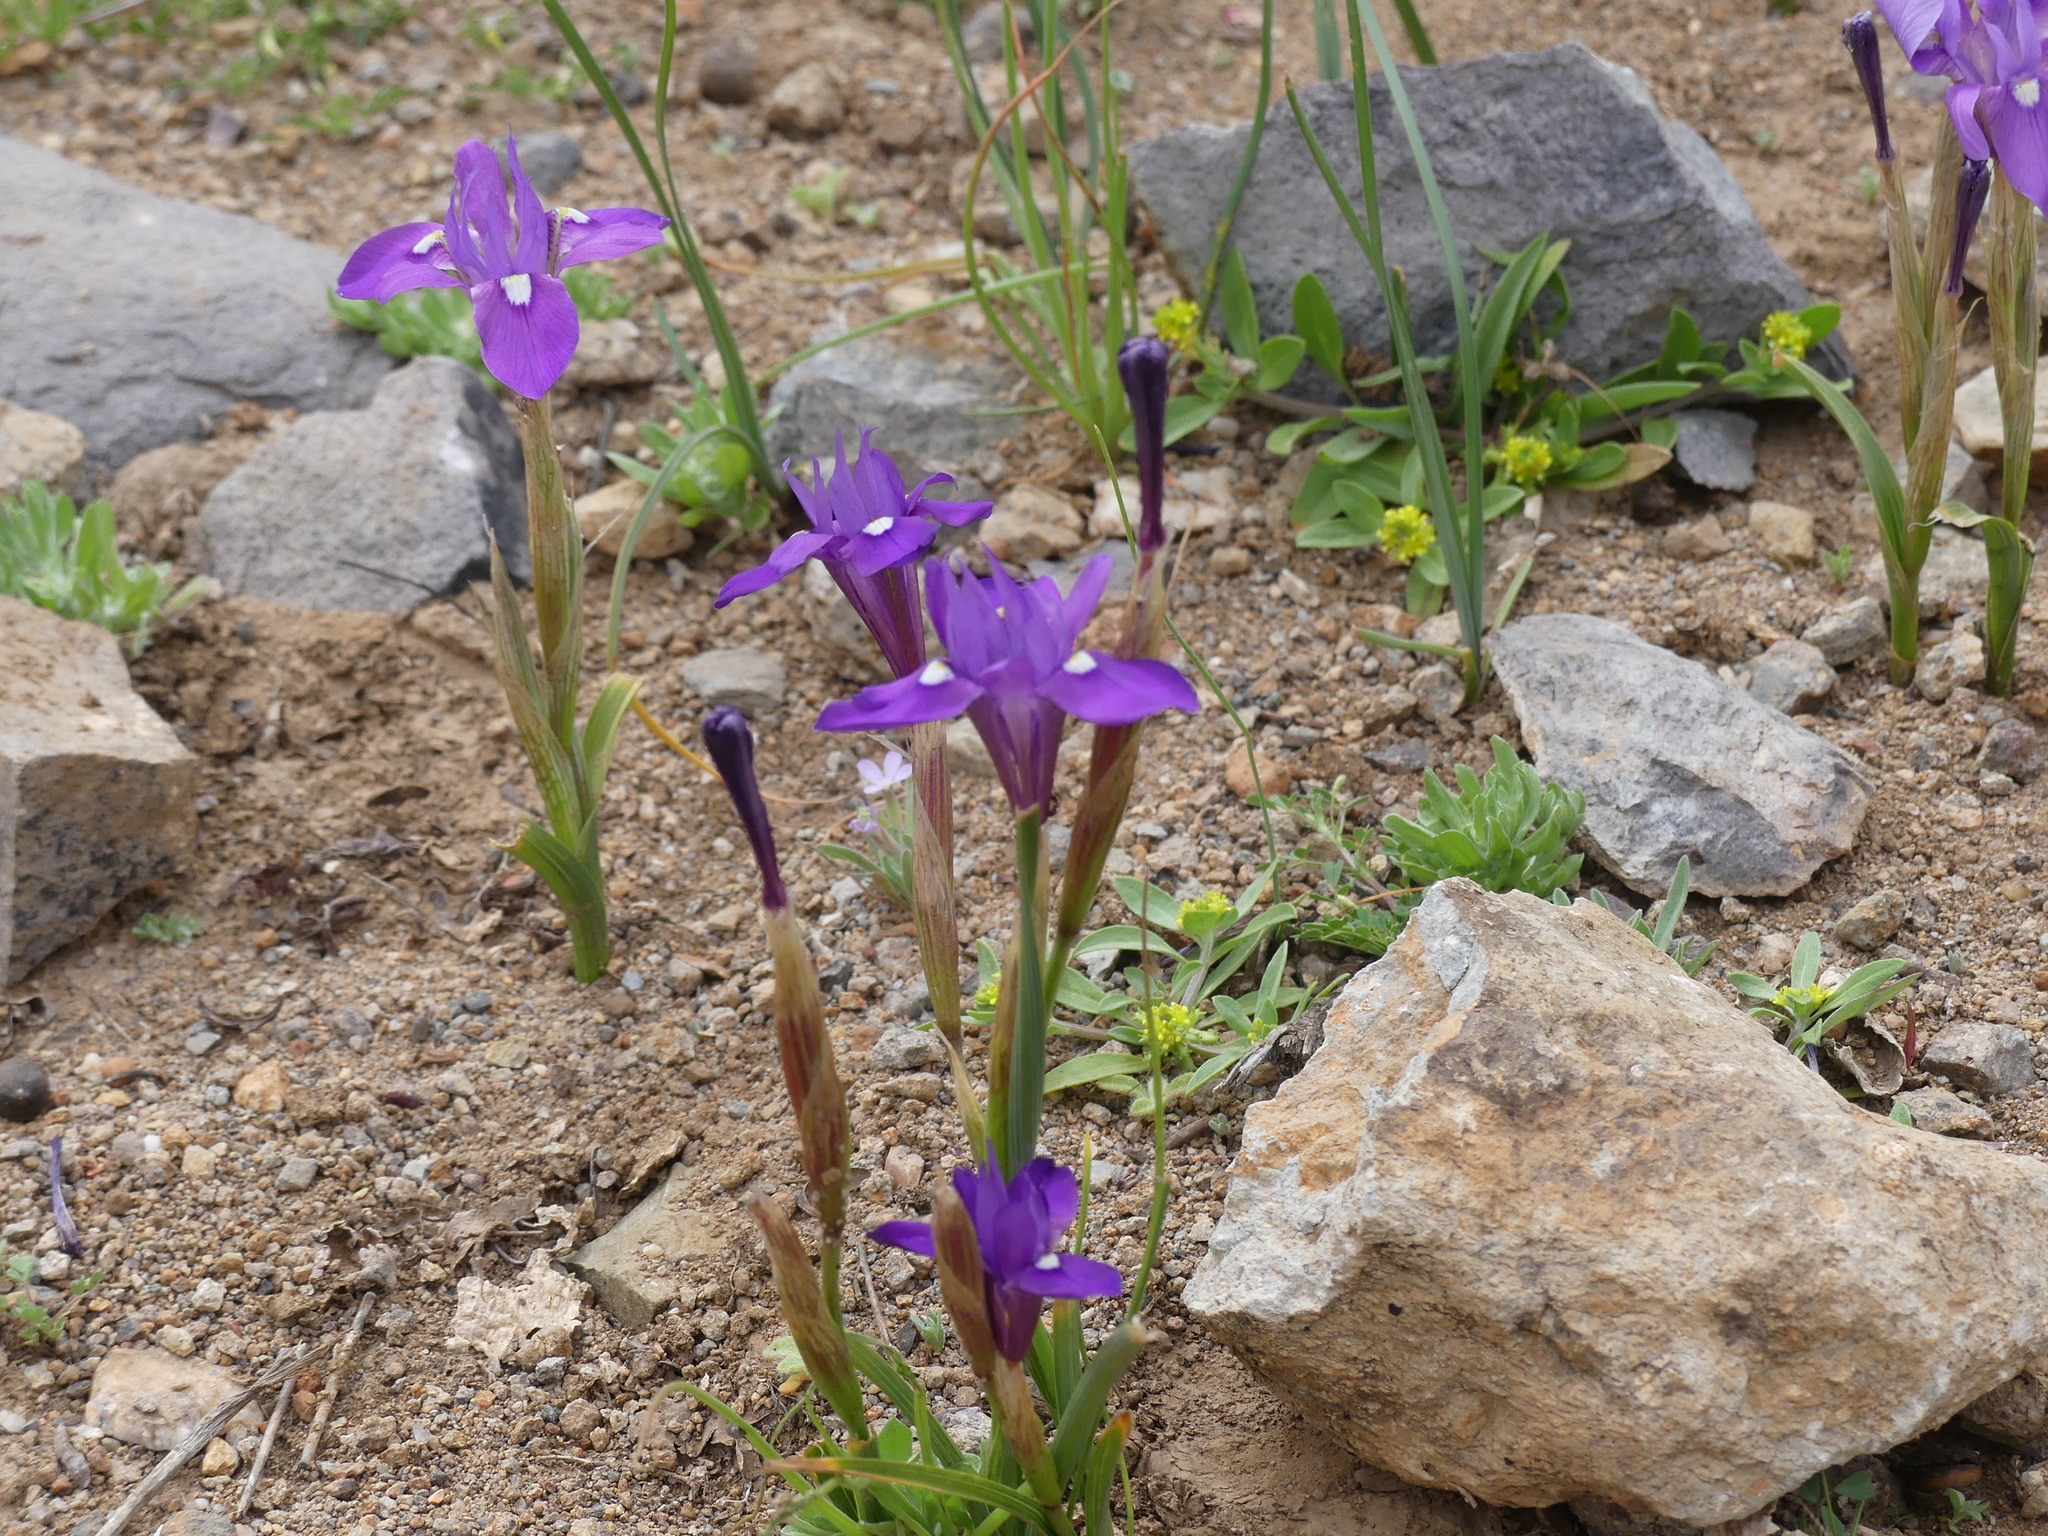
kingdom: Plantae
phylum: Tracheophyta
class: Liliopsida
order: Asparagales
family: Iridaceae
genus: Moraea
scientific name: Moraea sisyrinchium
